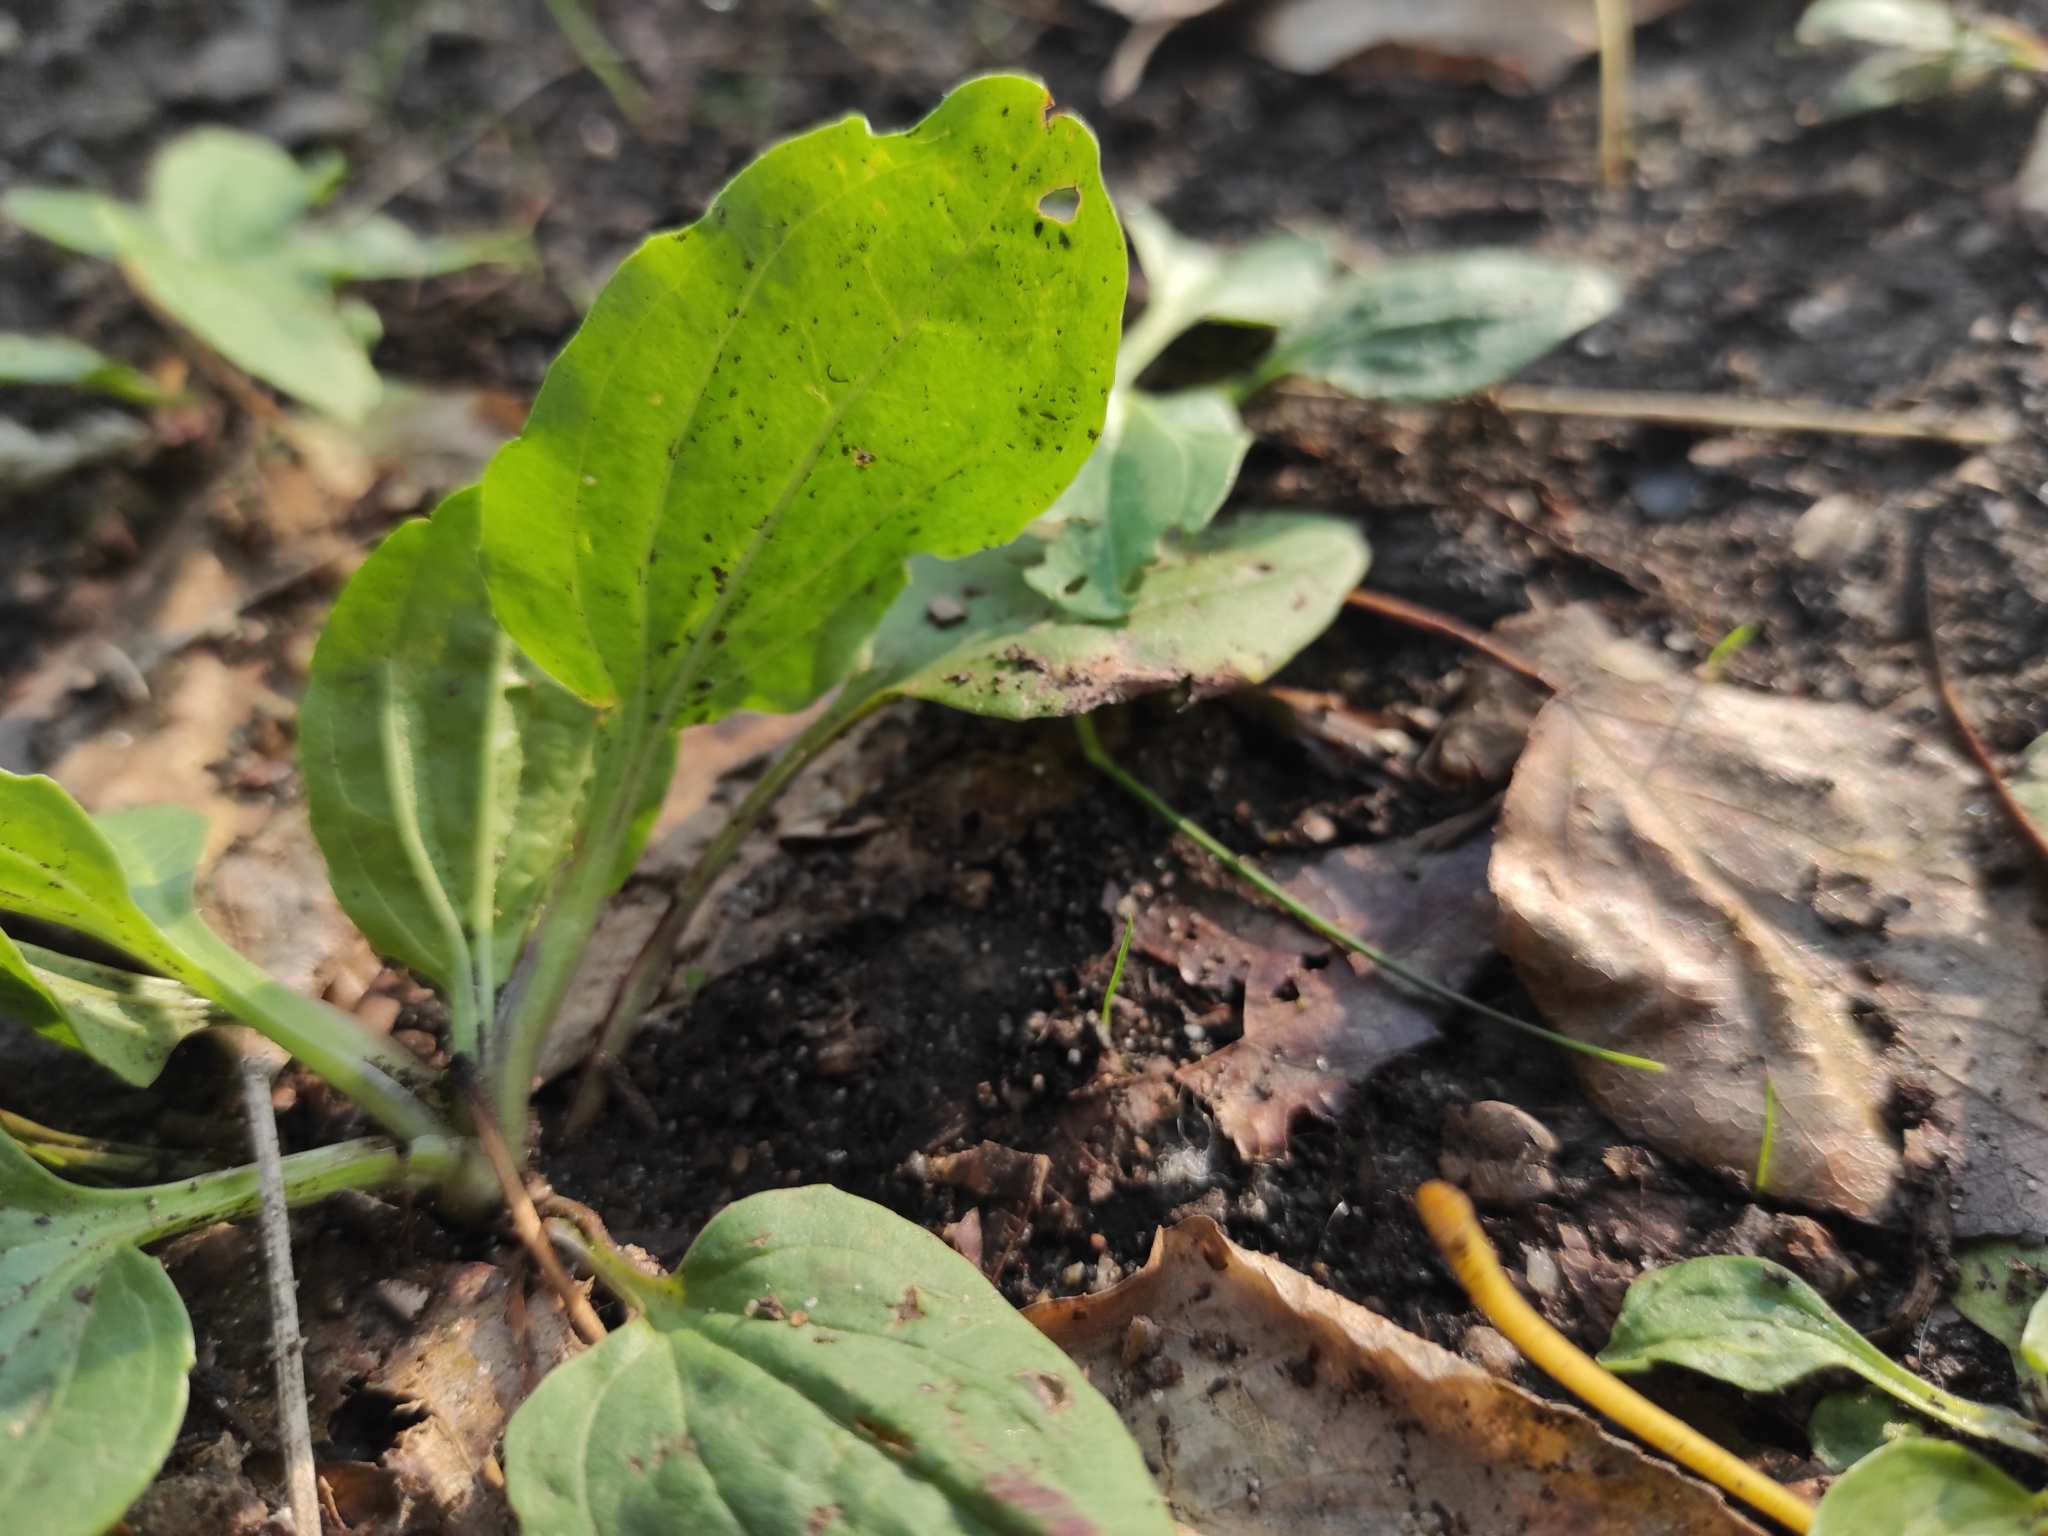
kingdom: Plantae
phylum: Tracheophyta
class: Magnoliopsida
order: Lamiales
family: Plantaginaceae
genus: Plantago
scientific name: Plantago major
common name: Common plantain
